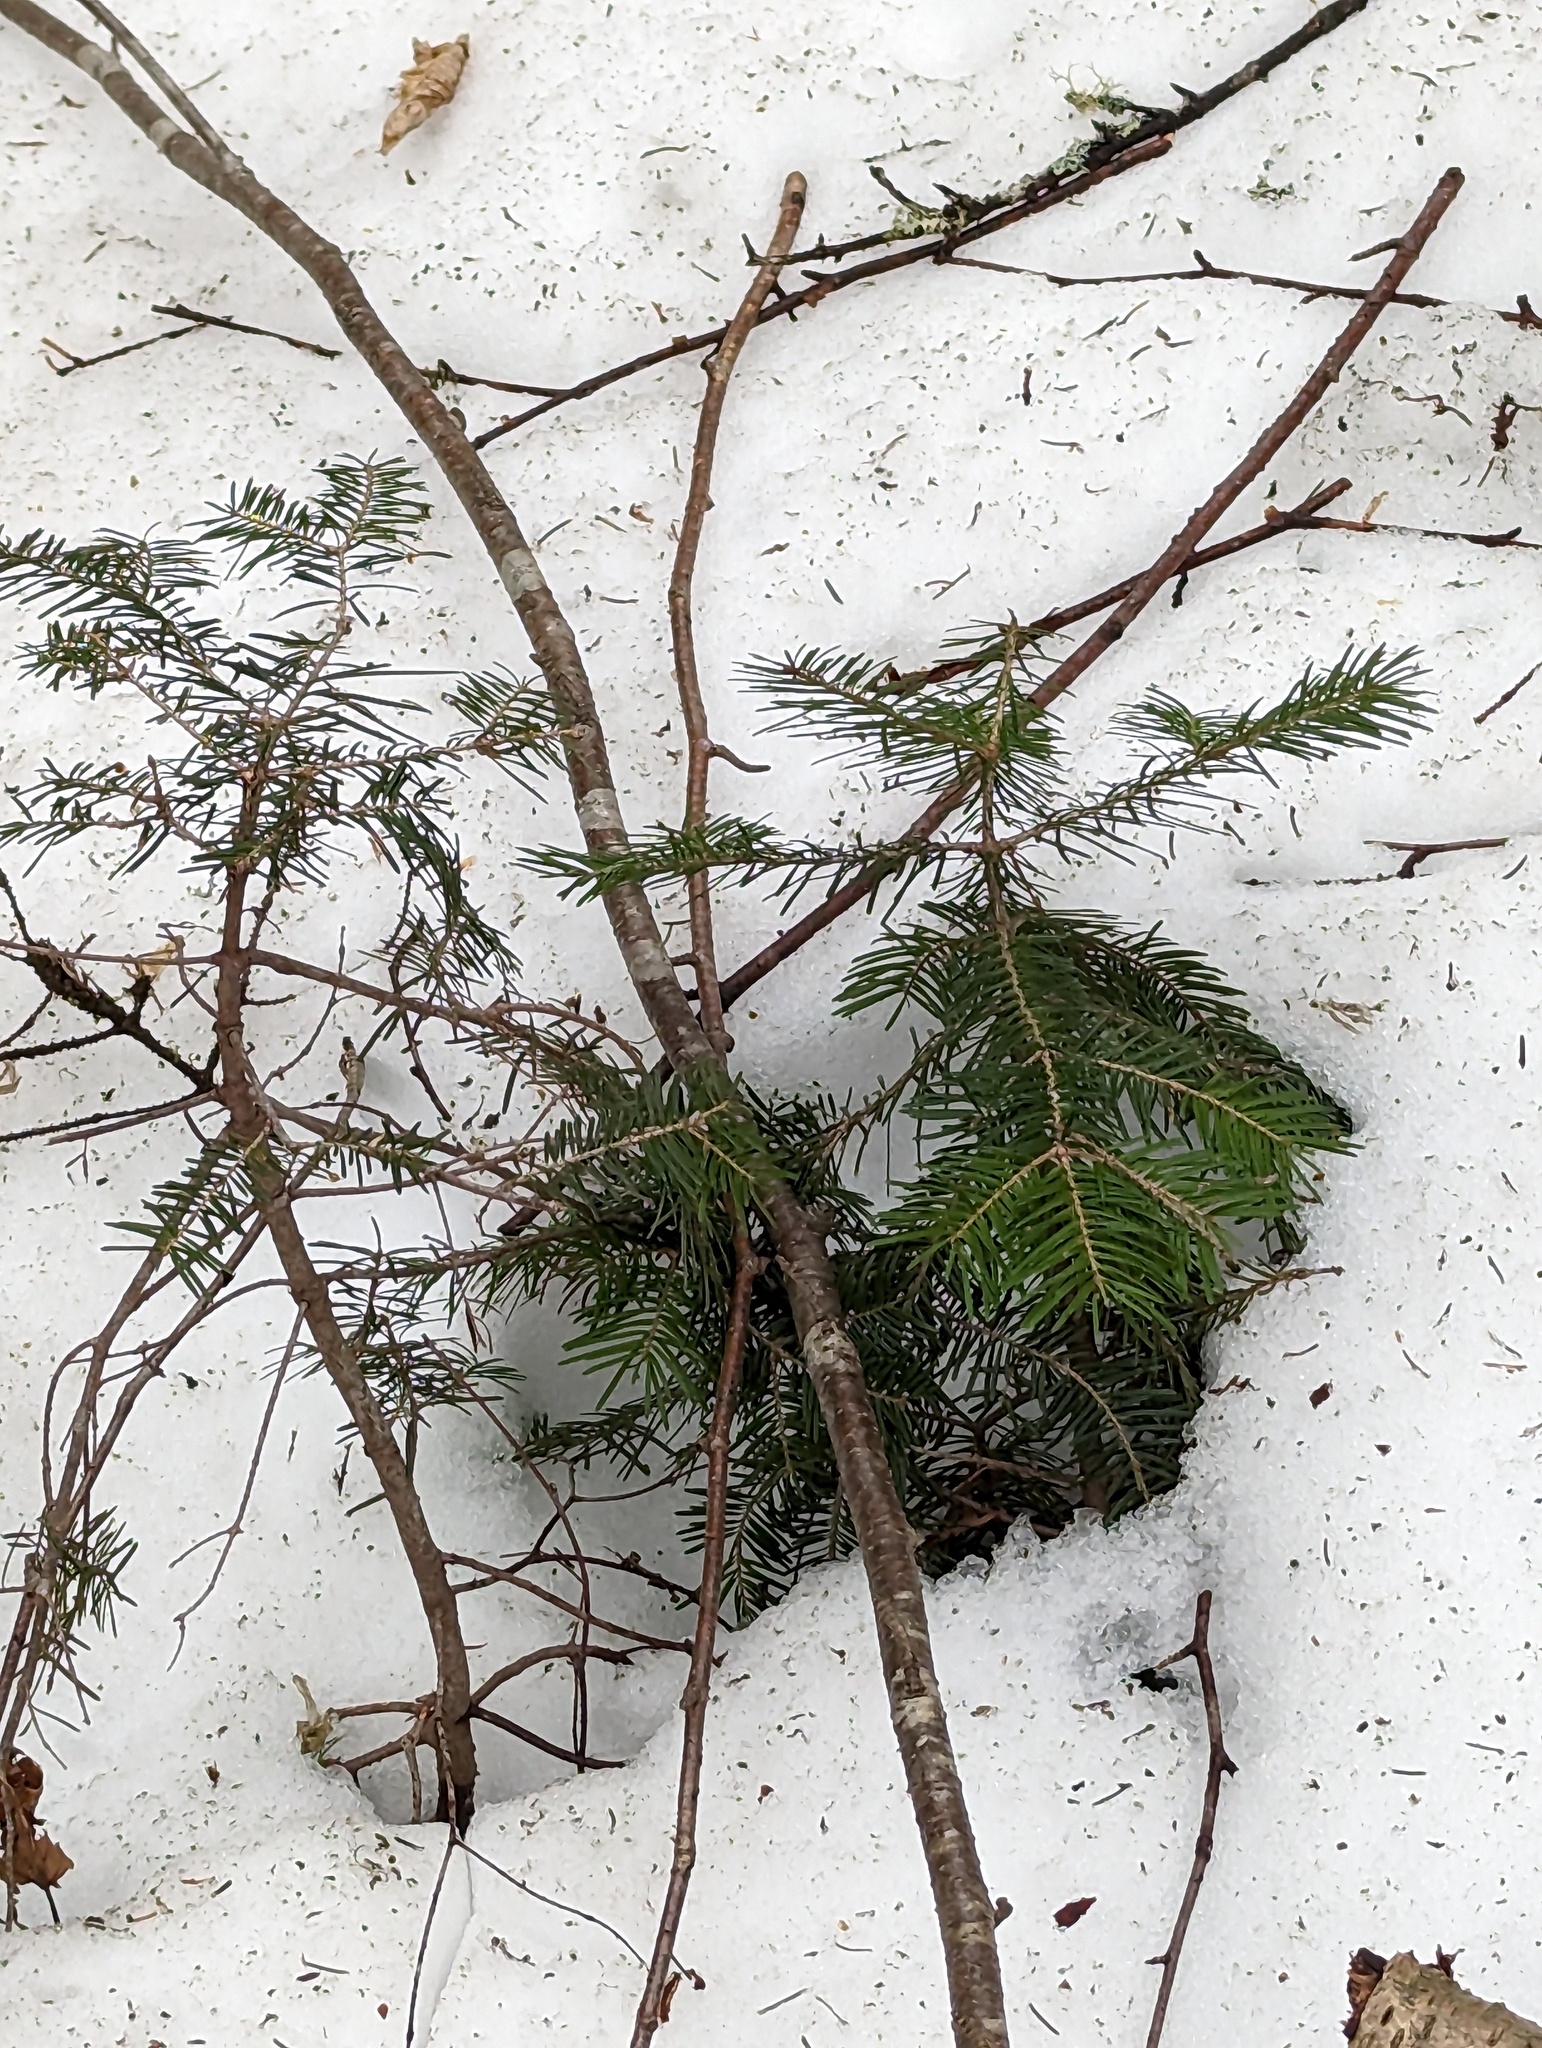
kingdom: Plantae
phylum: Tracheophyta
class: Pinopsida
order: Pinales
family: Pinaceae
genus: Abies
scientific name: Abies balsamea
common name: Balsam fir
